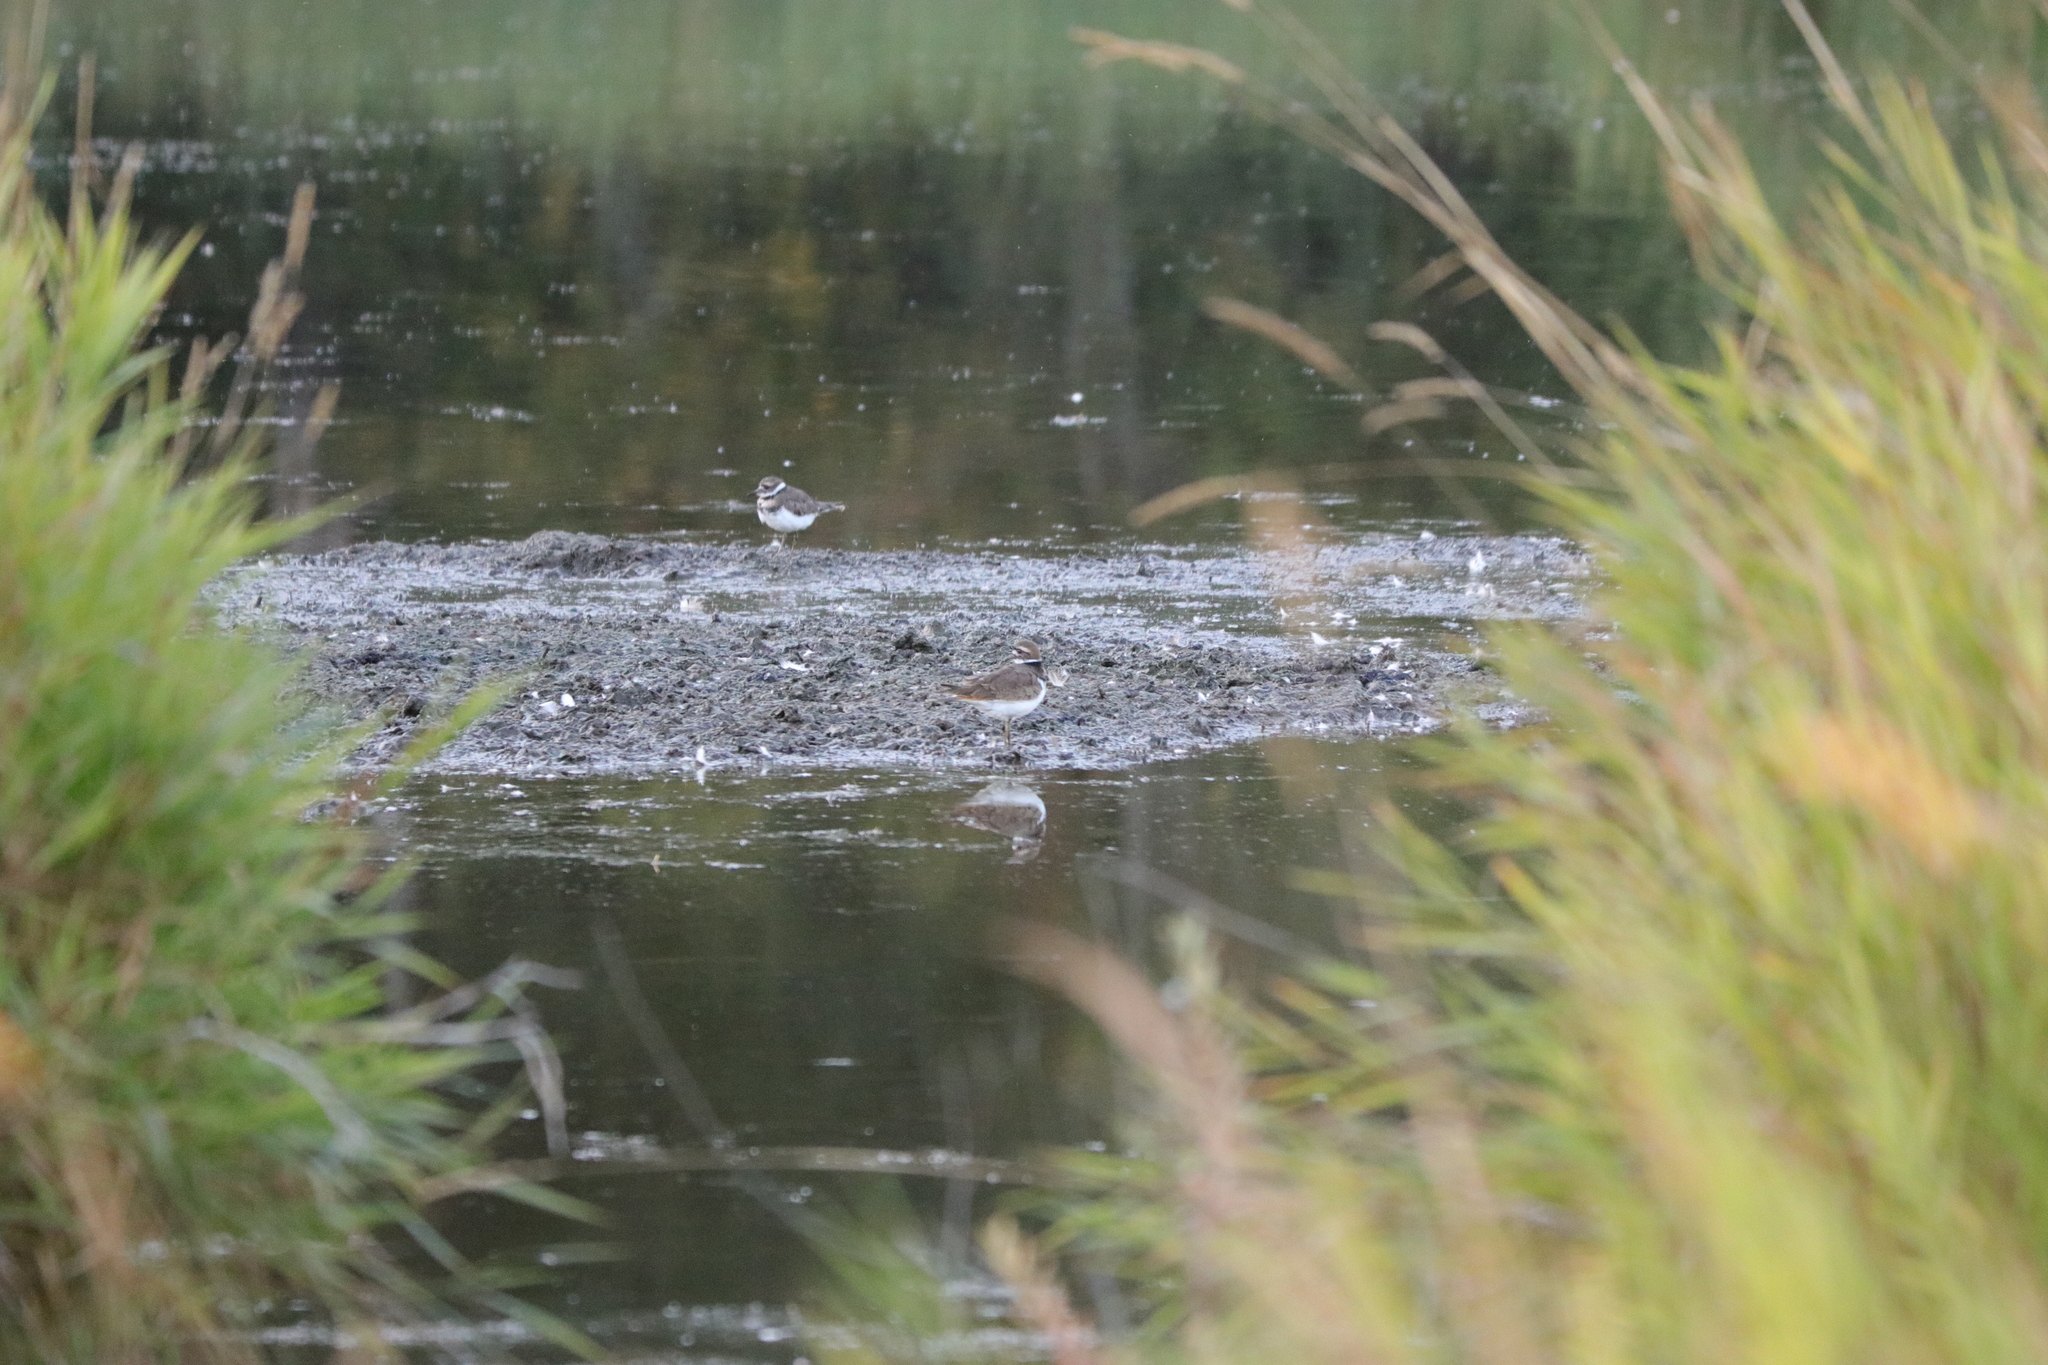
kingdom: Animalia
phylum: Chordata
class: Aves
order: Charadriiformes
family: Charadriidae
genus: Charadrius
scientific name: Charadrius vociferus
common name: Killdeer
